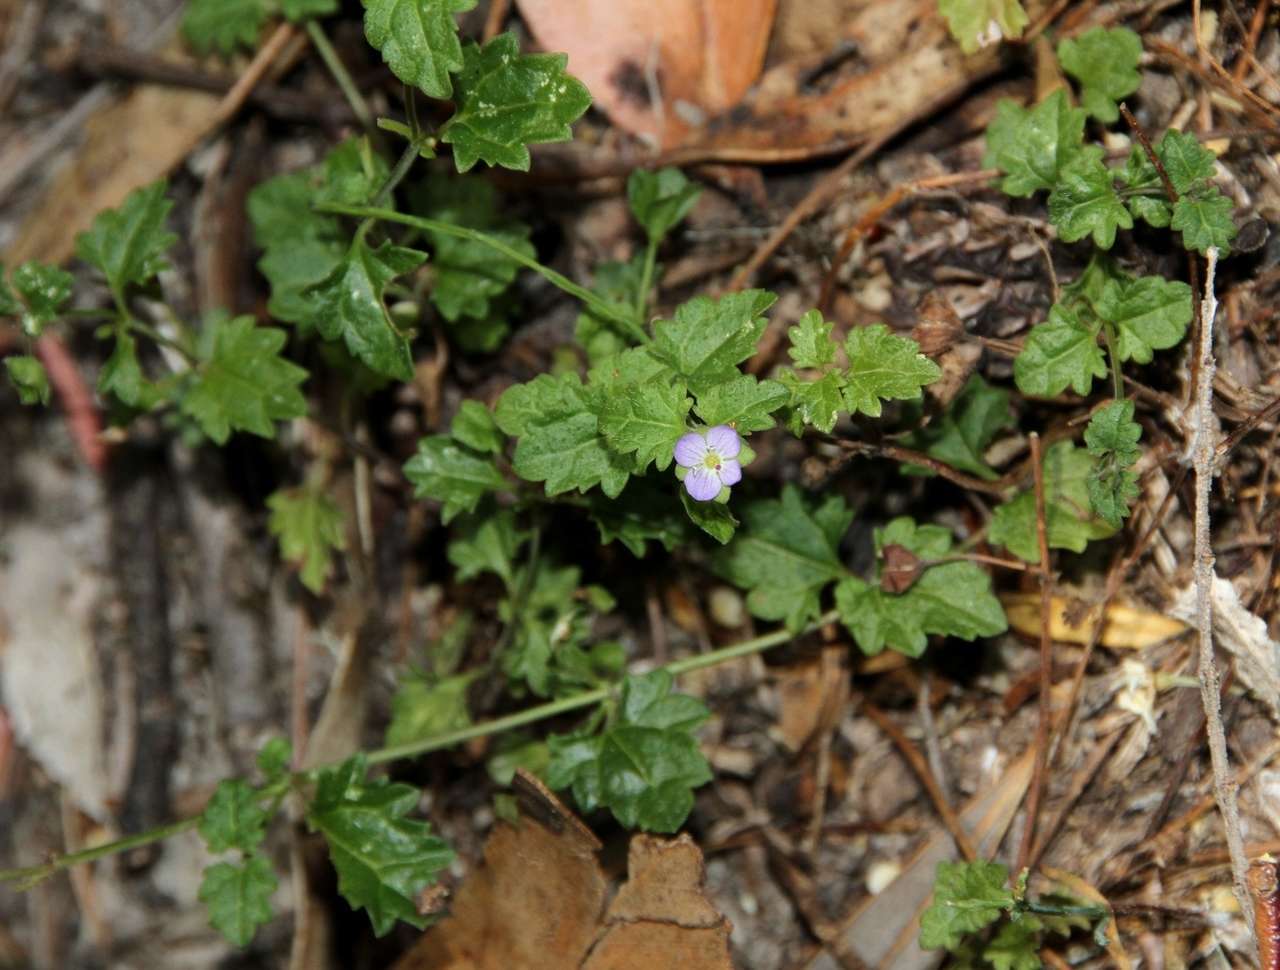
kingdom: Plantae
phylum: Tracheophyta
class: Magnoliopsida
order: Lamiales
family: Plantaginaceae
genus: Veronica
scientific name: Veronica plebeia
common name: Speedwell
